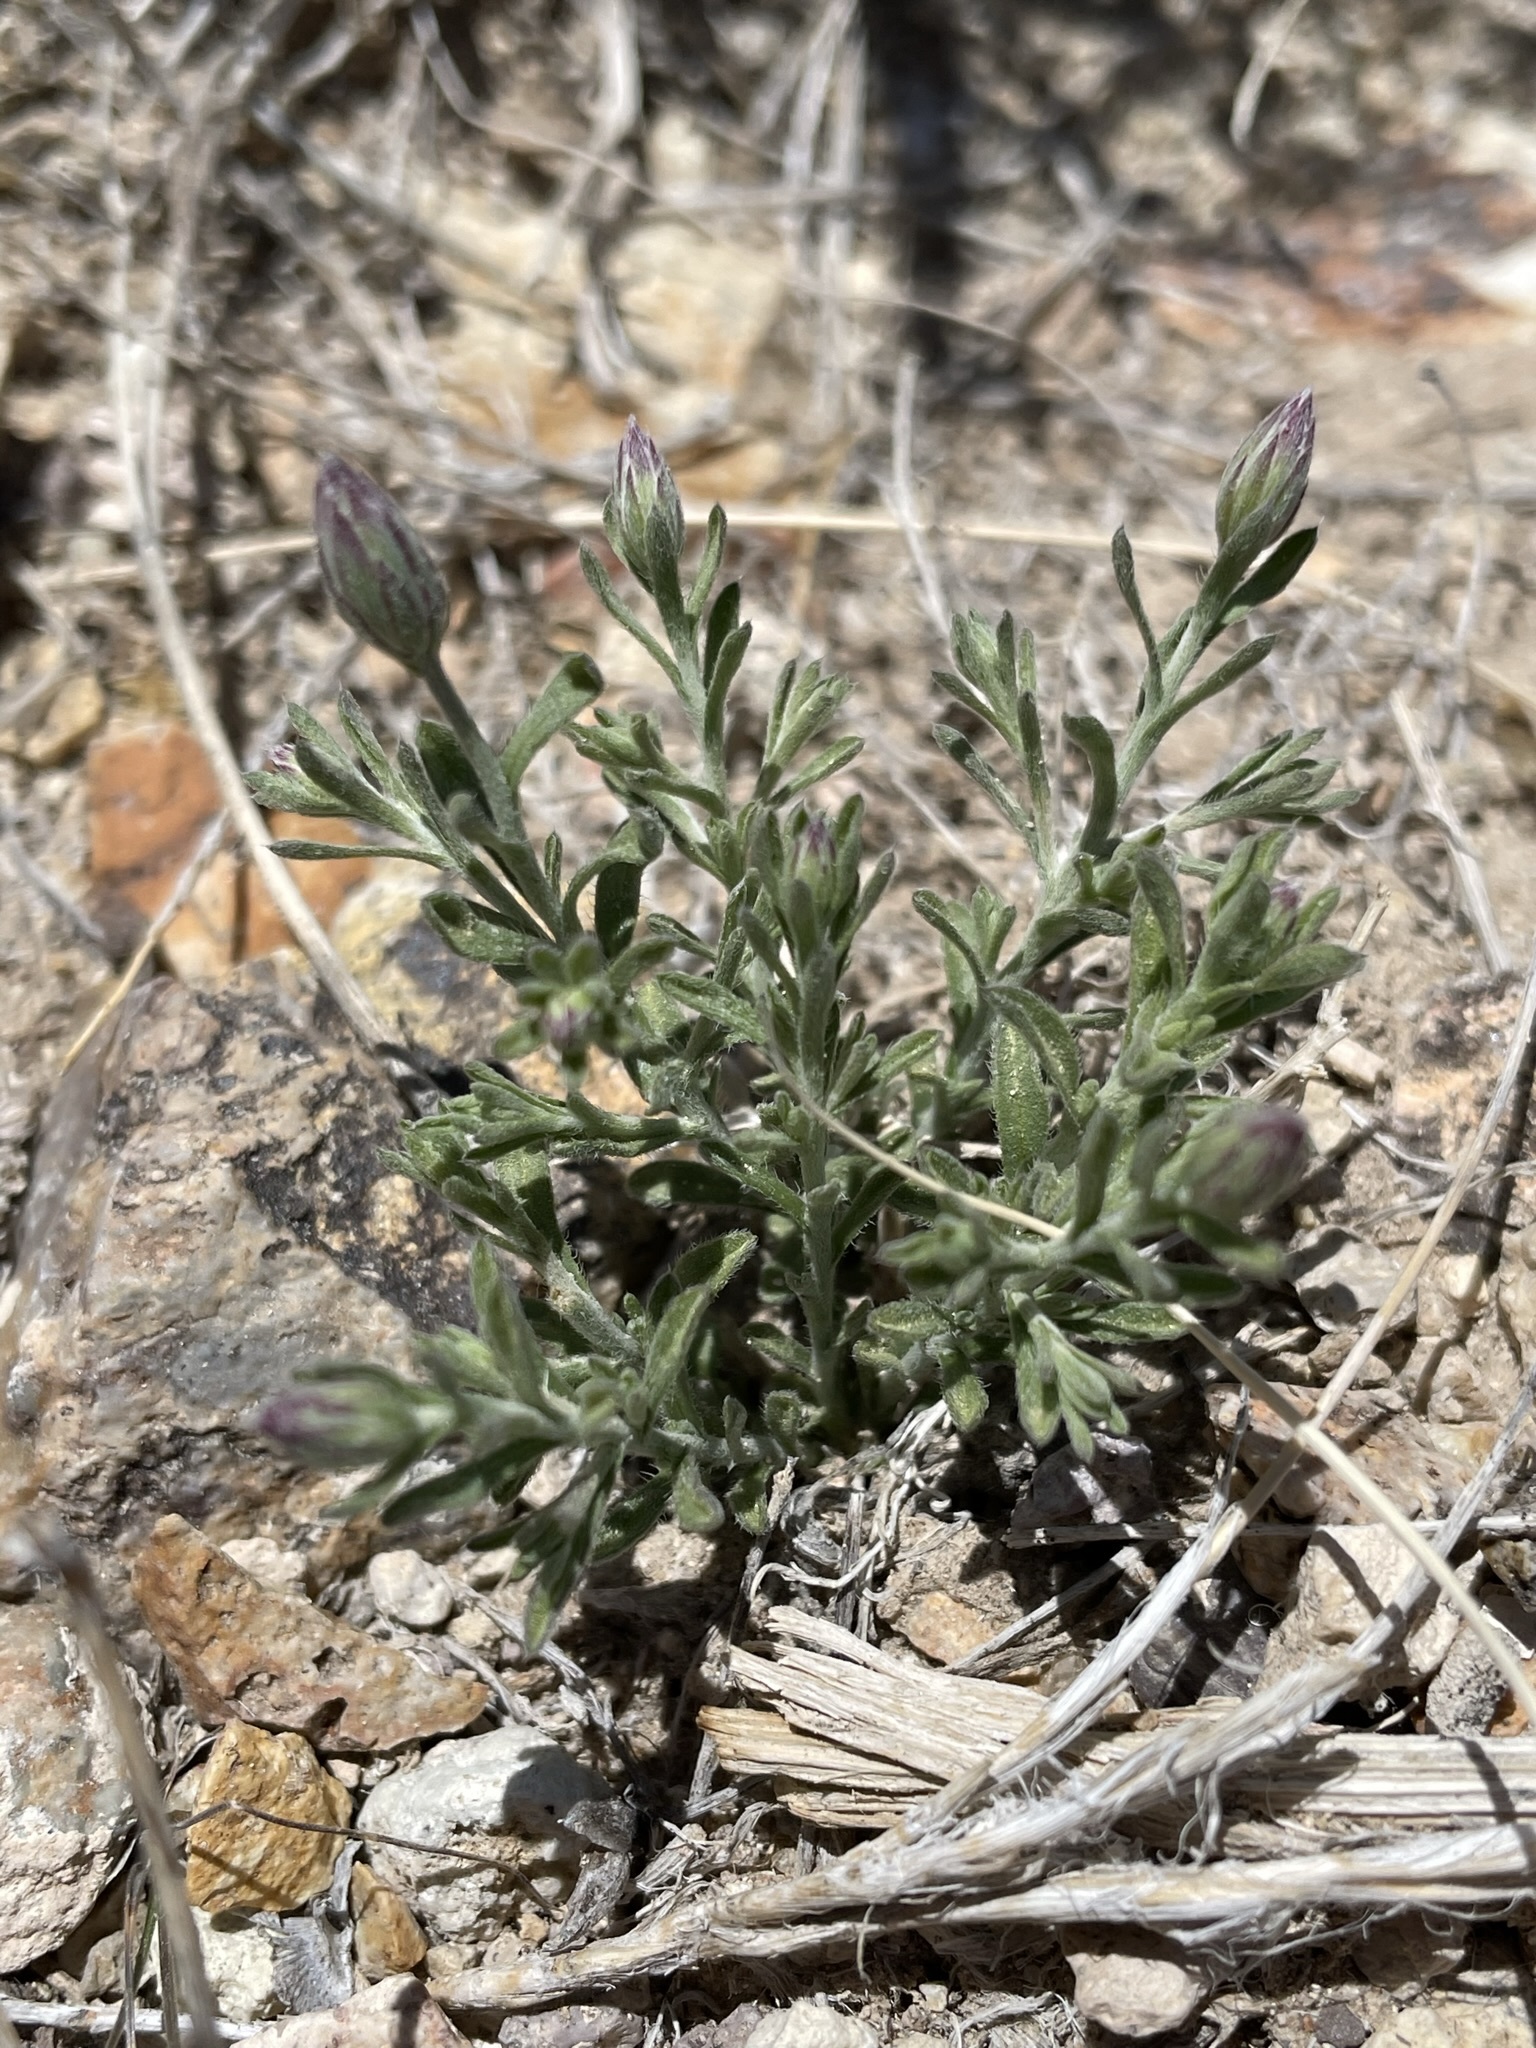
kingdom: Plantae
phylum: Tracheophyta
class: Magnoliopsida
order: Asterales
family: Asteraceae
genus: Chaetopappa
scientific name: Chaetopappa ericoides
